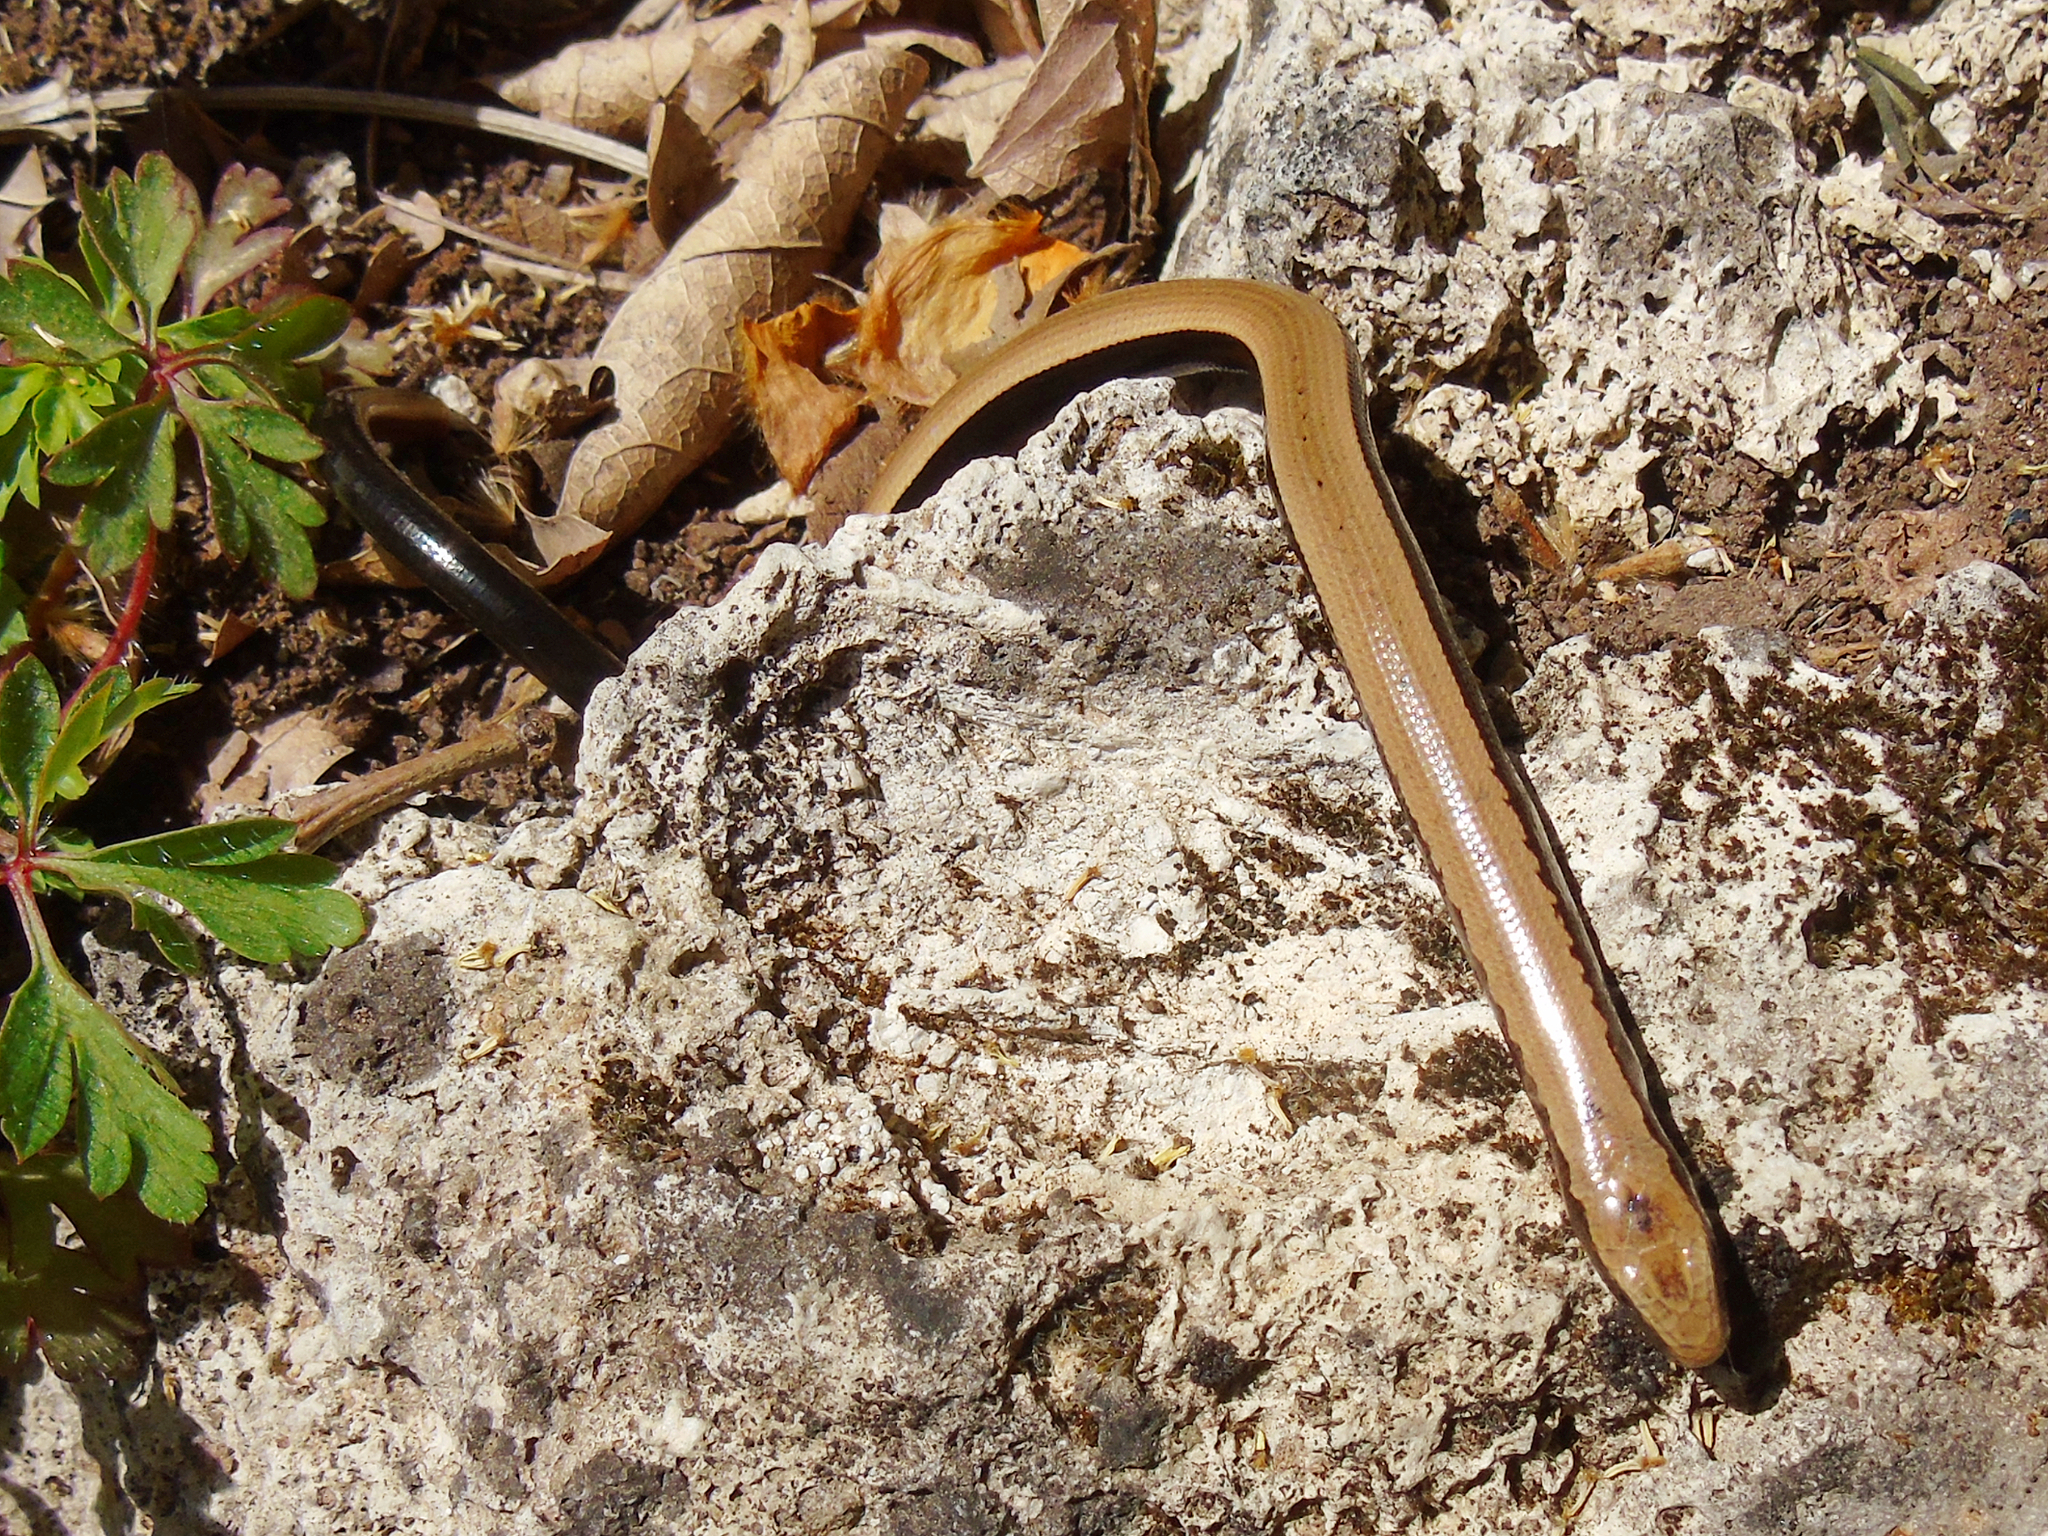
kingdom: Animalia
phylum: Chordata
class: Squamata
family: Anguidae
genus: Anguis
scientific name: Anguis cephallonica
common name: Peloponnese slow worm
